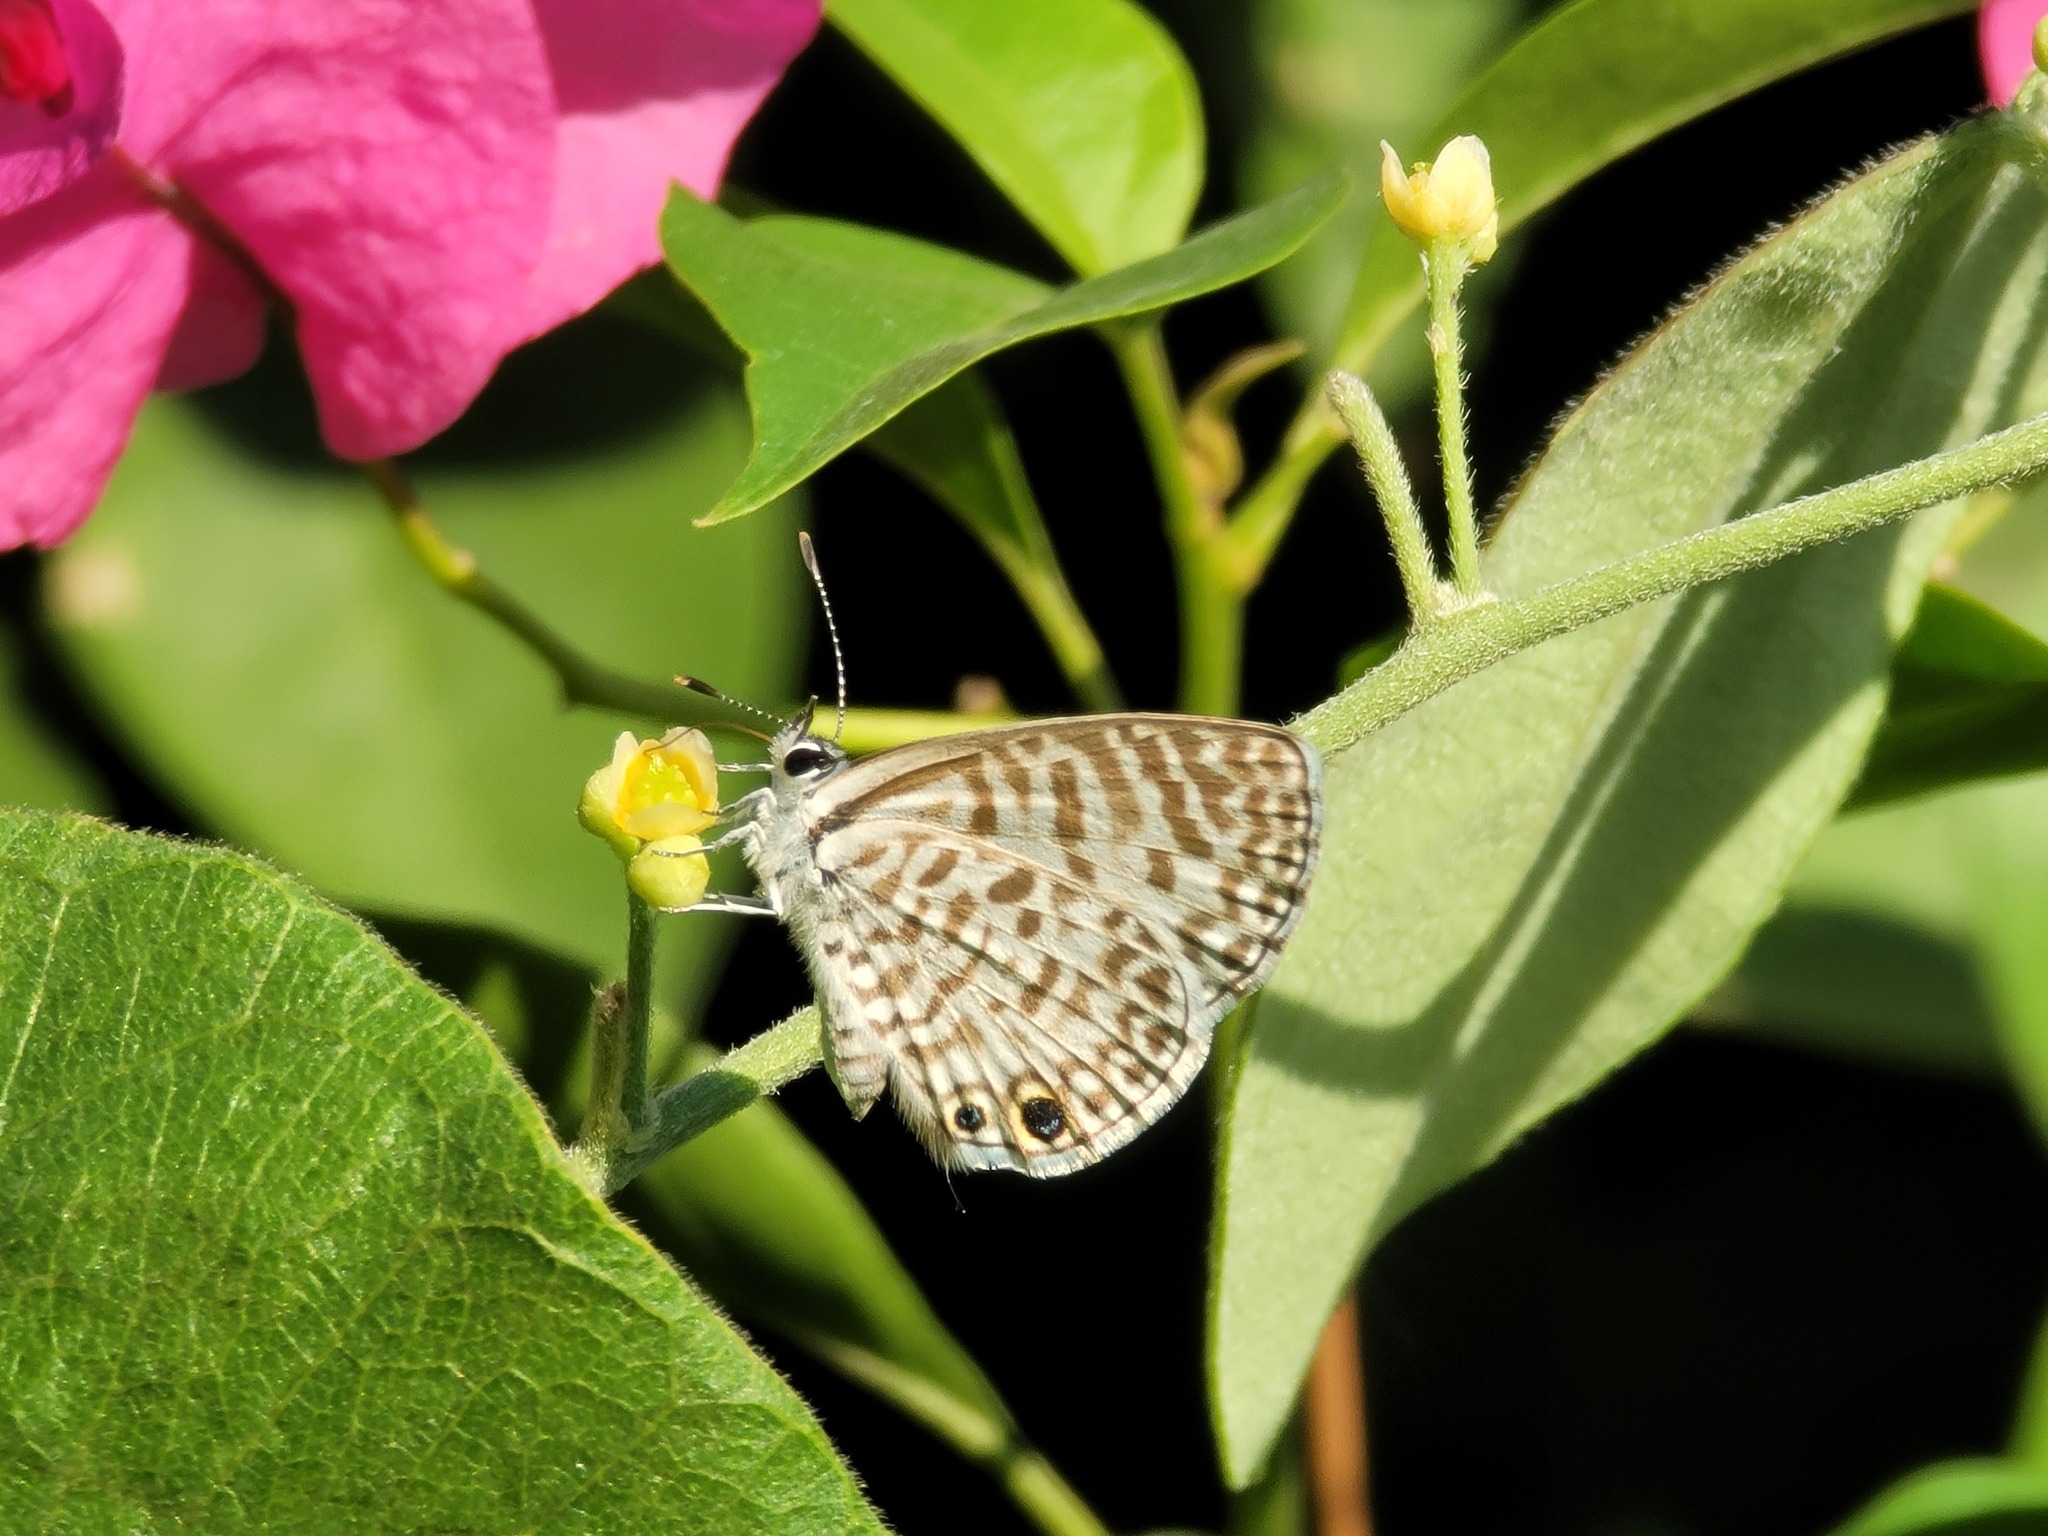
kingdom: Animalia
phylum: Arthropoda
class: Insecta
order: Lepidoptera
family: Lycaenidae
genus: Leptotes
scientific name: Leptotes theonus
